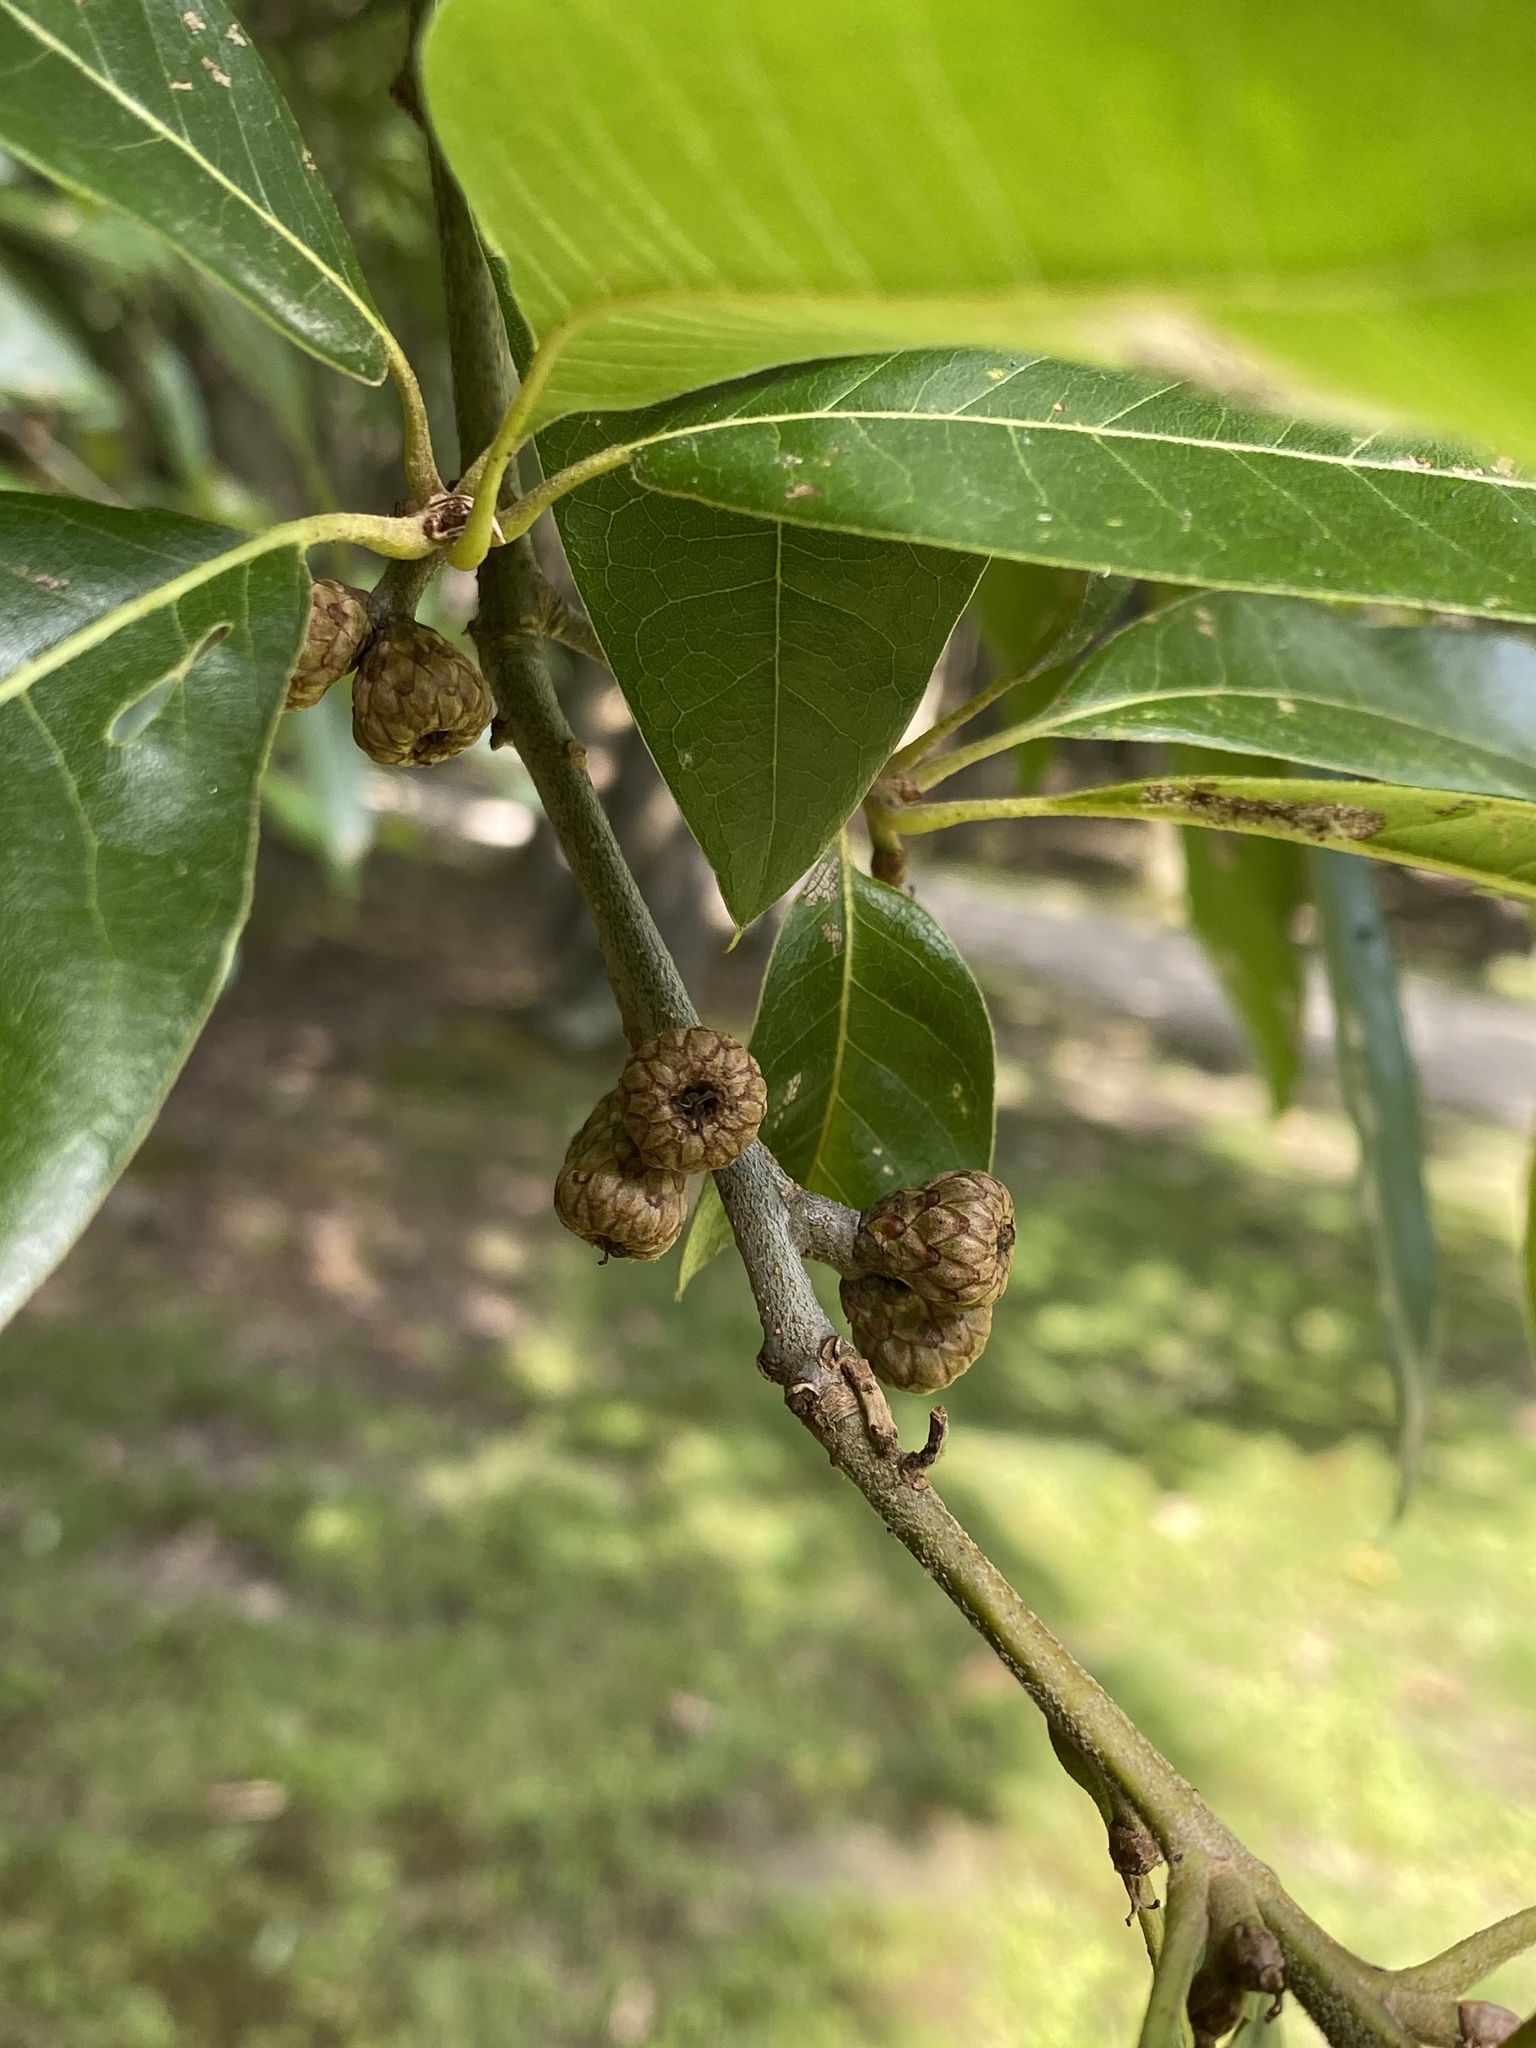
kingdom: Plantae
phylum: Tracheophyta
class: Magnoliopsida
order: Fagales
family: Fagaceae
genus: Quercus
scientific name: Quercus imbricaria
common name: Shingle oak
